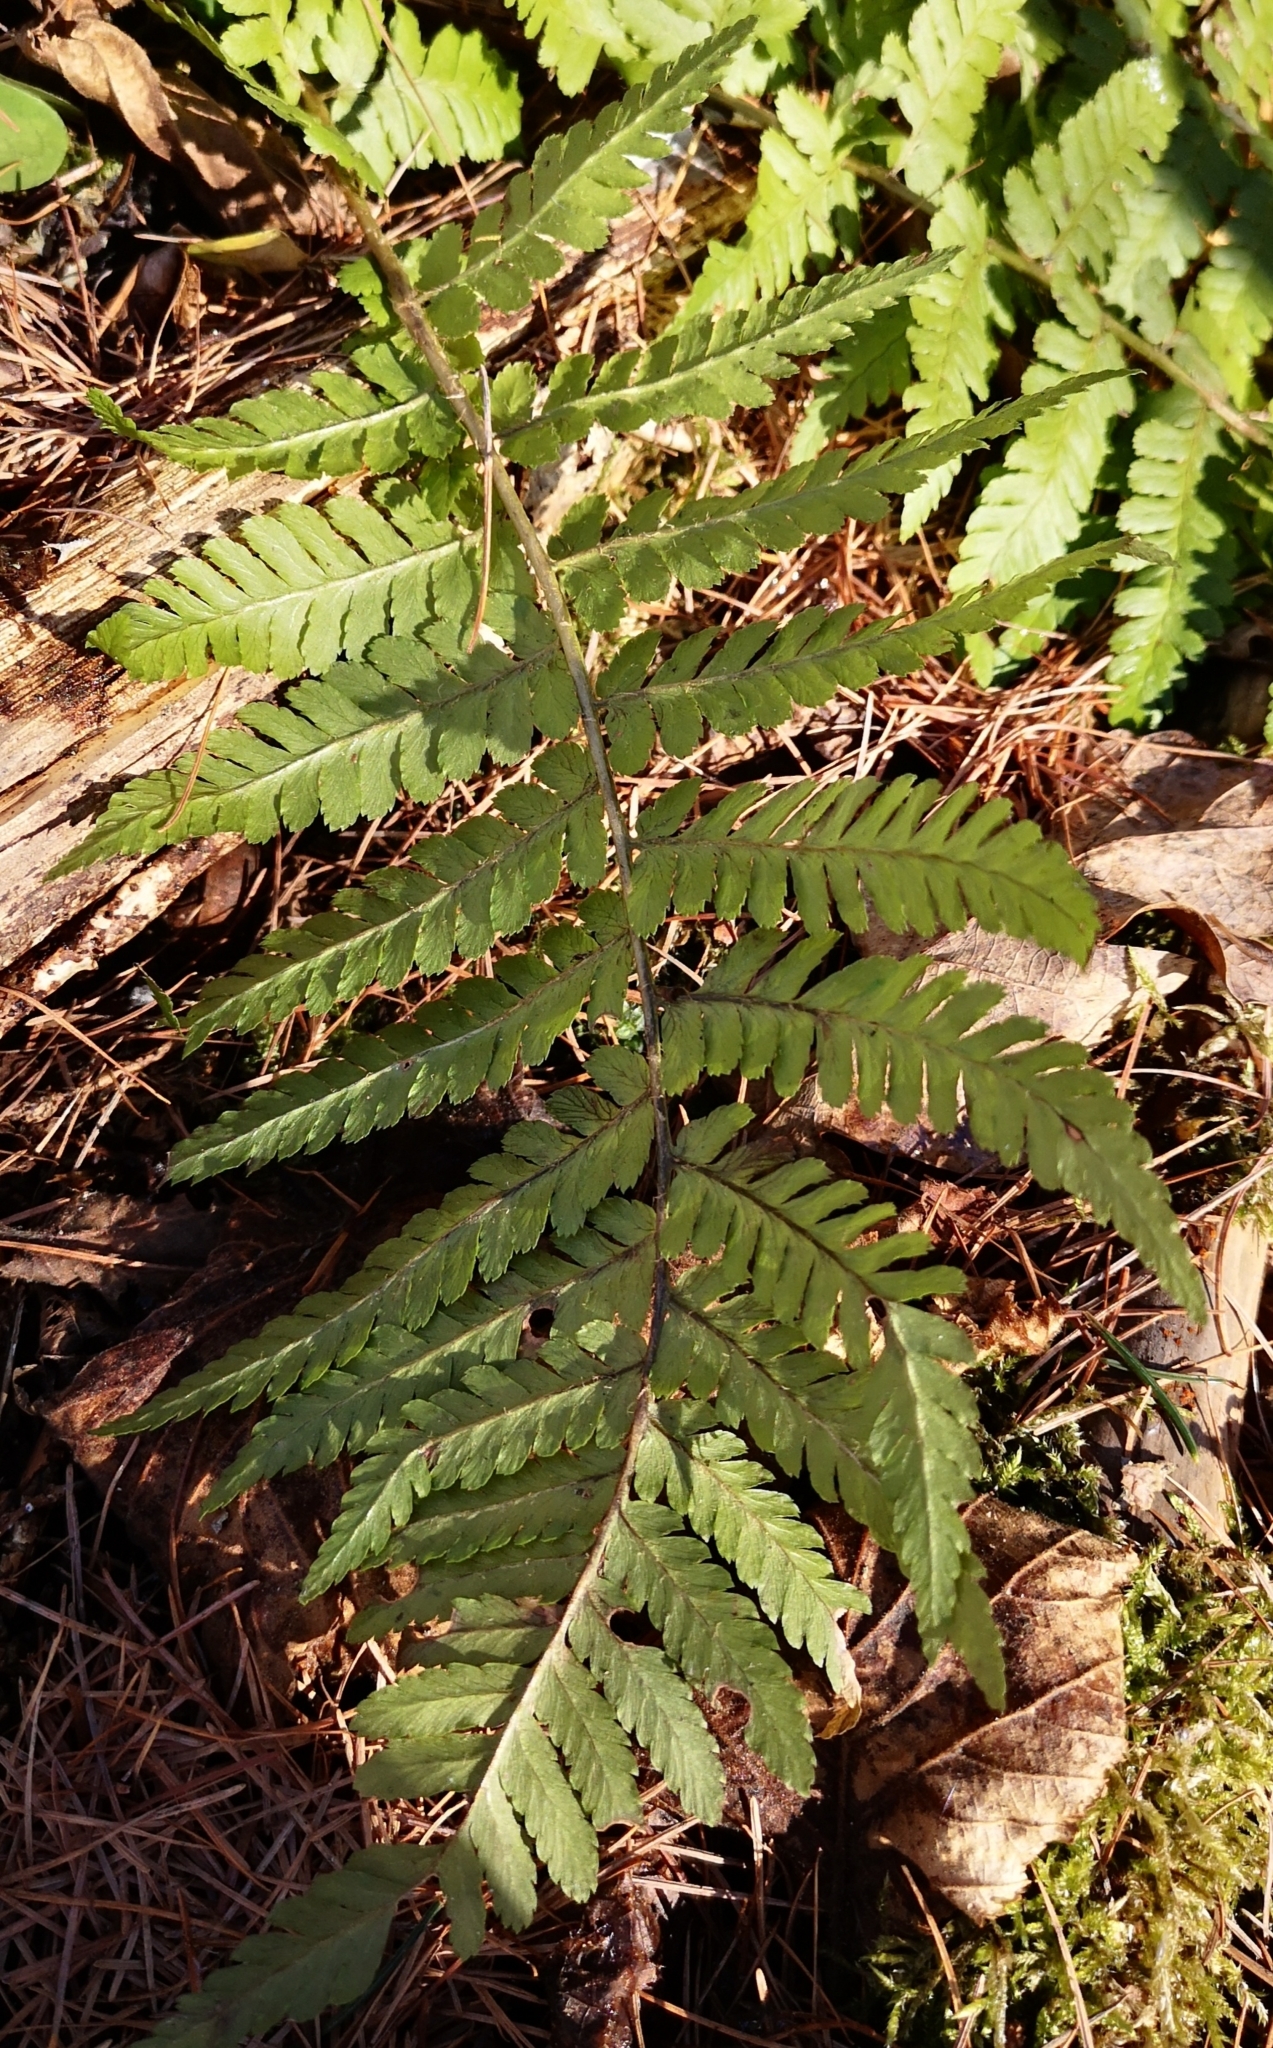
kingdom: Plantae
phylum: Tracheophyta
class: Polypodiopsida
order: Polypodiales
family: Dryopteridaceae
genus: Dryopteris
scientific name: Dryopteris filix-mas
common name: Male fern
